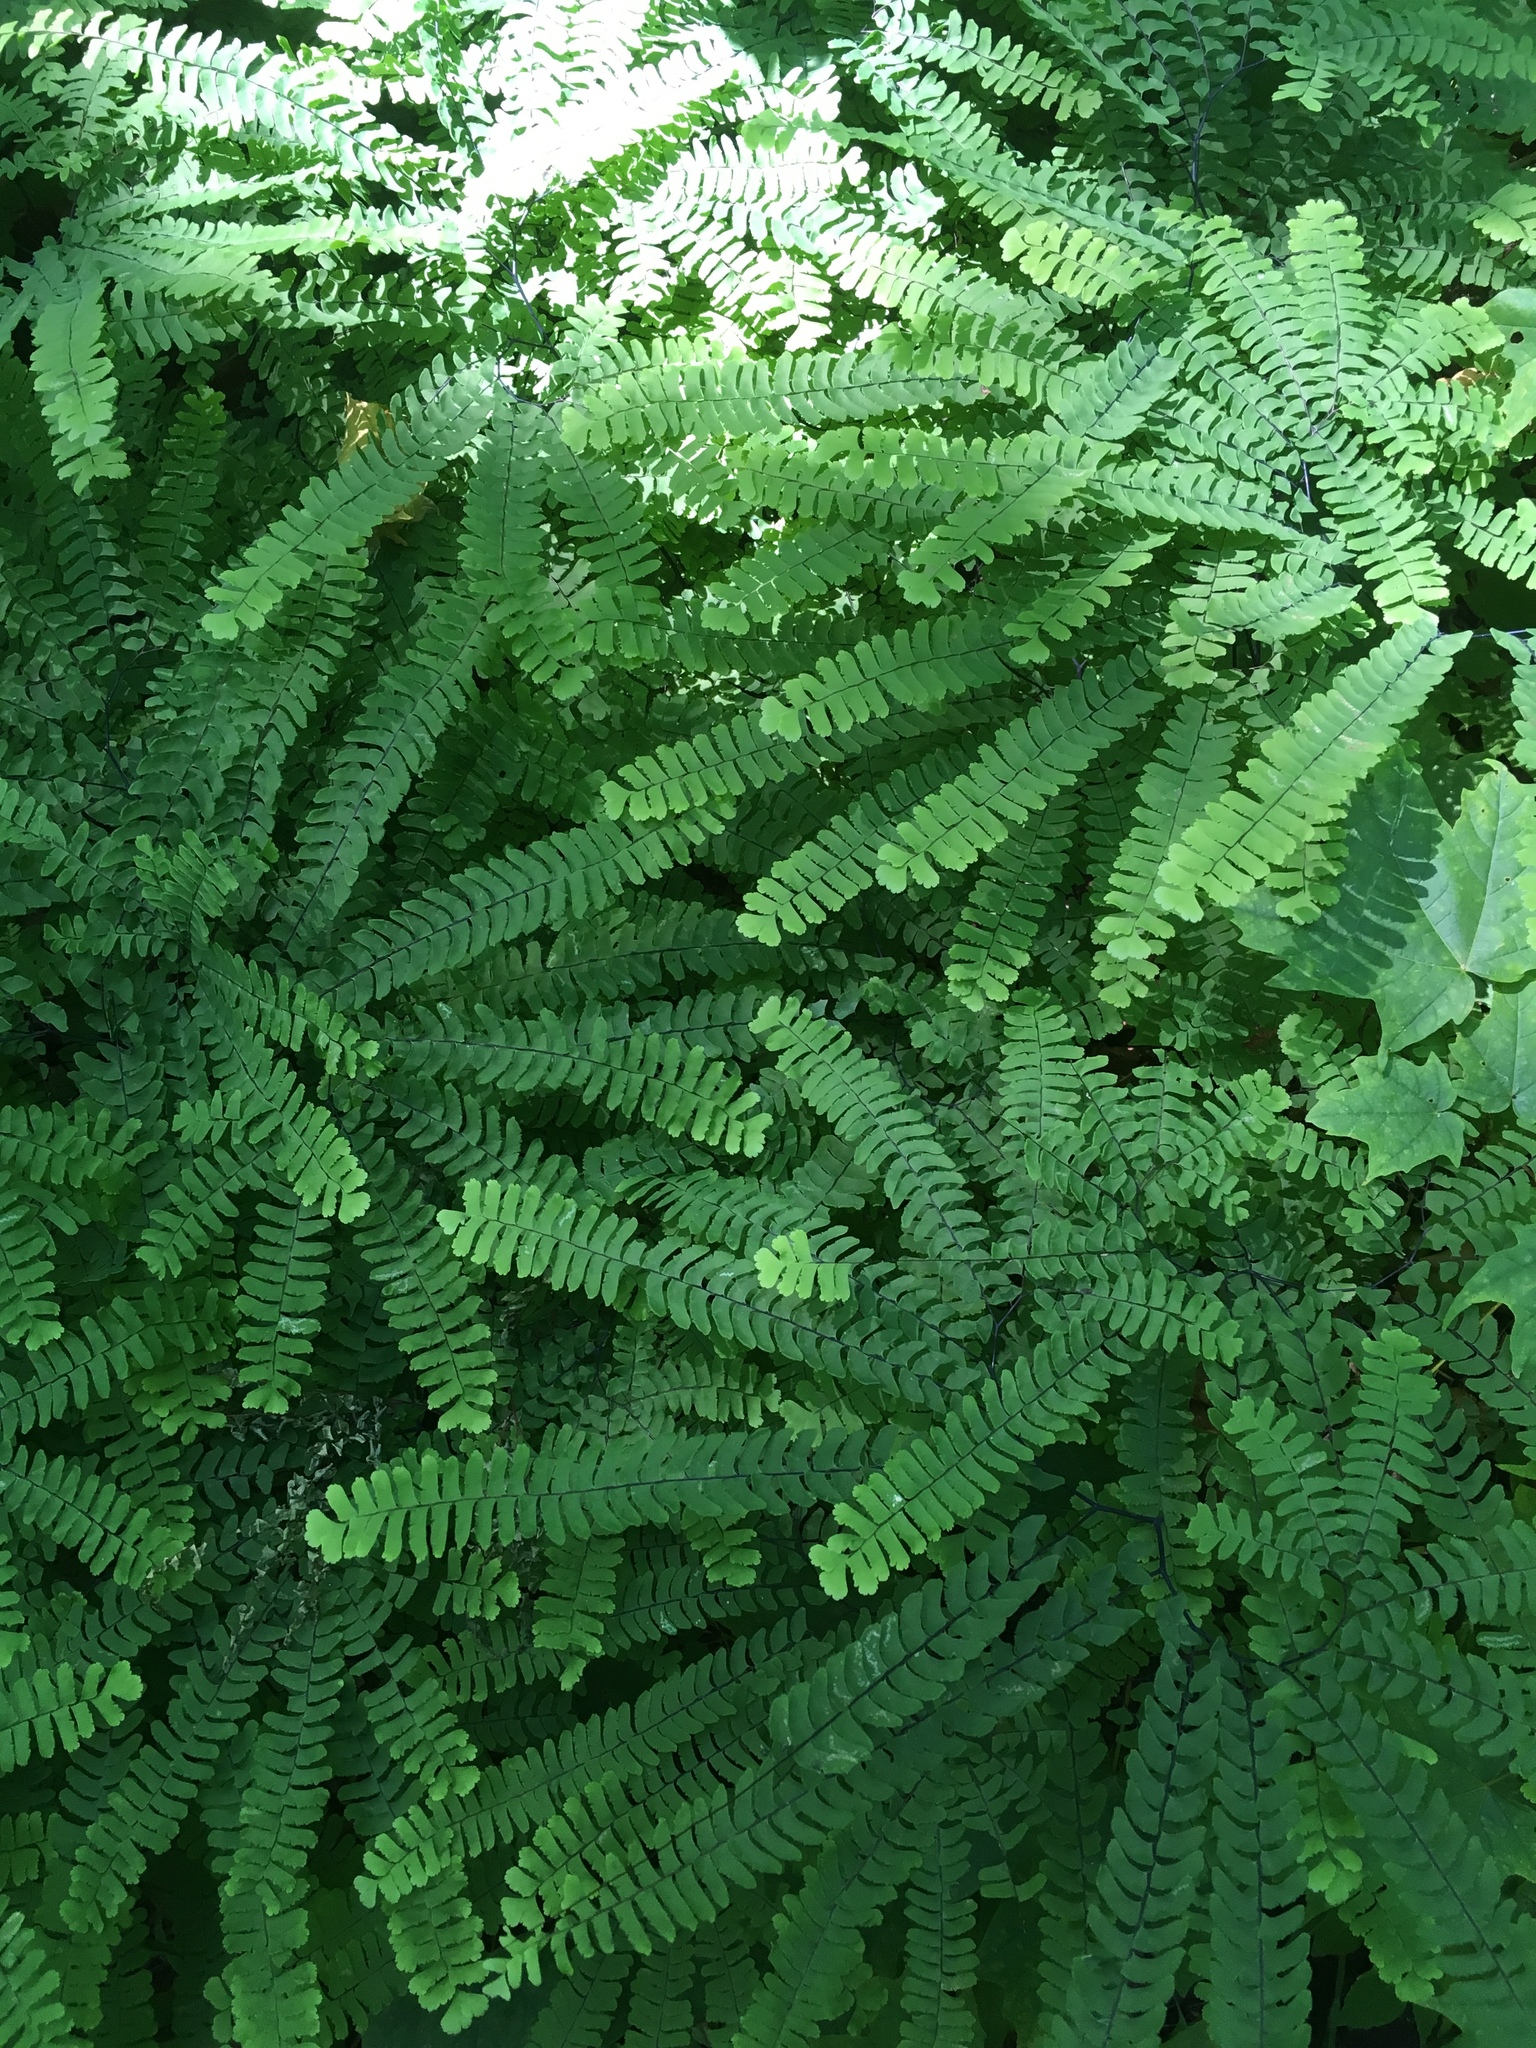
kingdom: Plantae
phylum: Tracheophyta
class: Polypodiopsida
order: Polypodiales
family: Pteridaceae
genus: Adiantum
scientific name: Adiantum pedatum
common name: Five-finger fern
